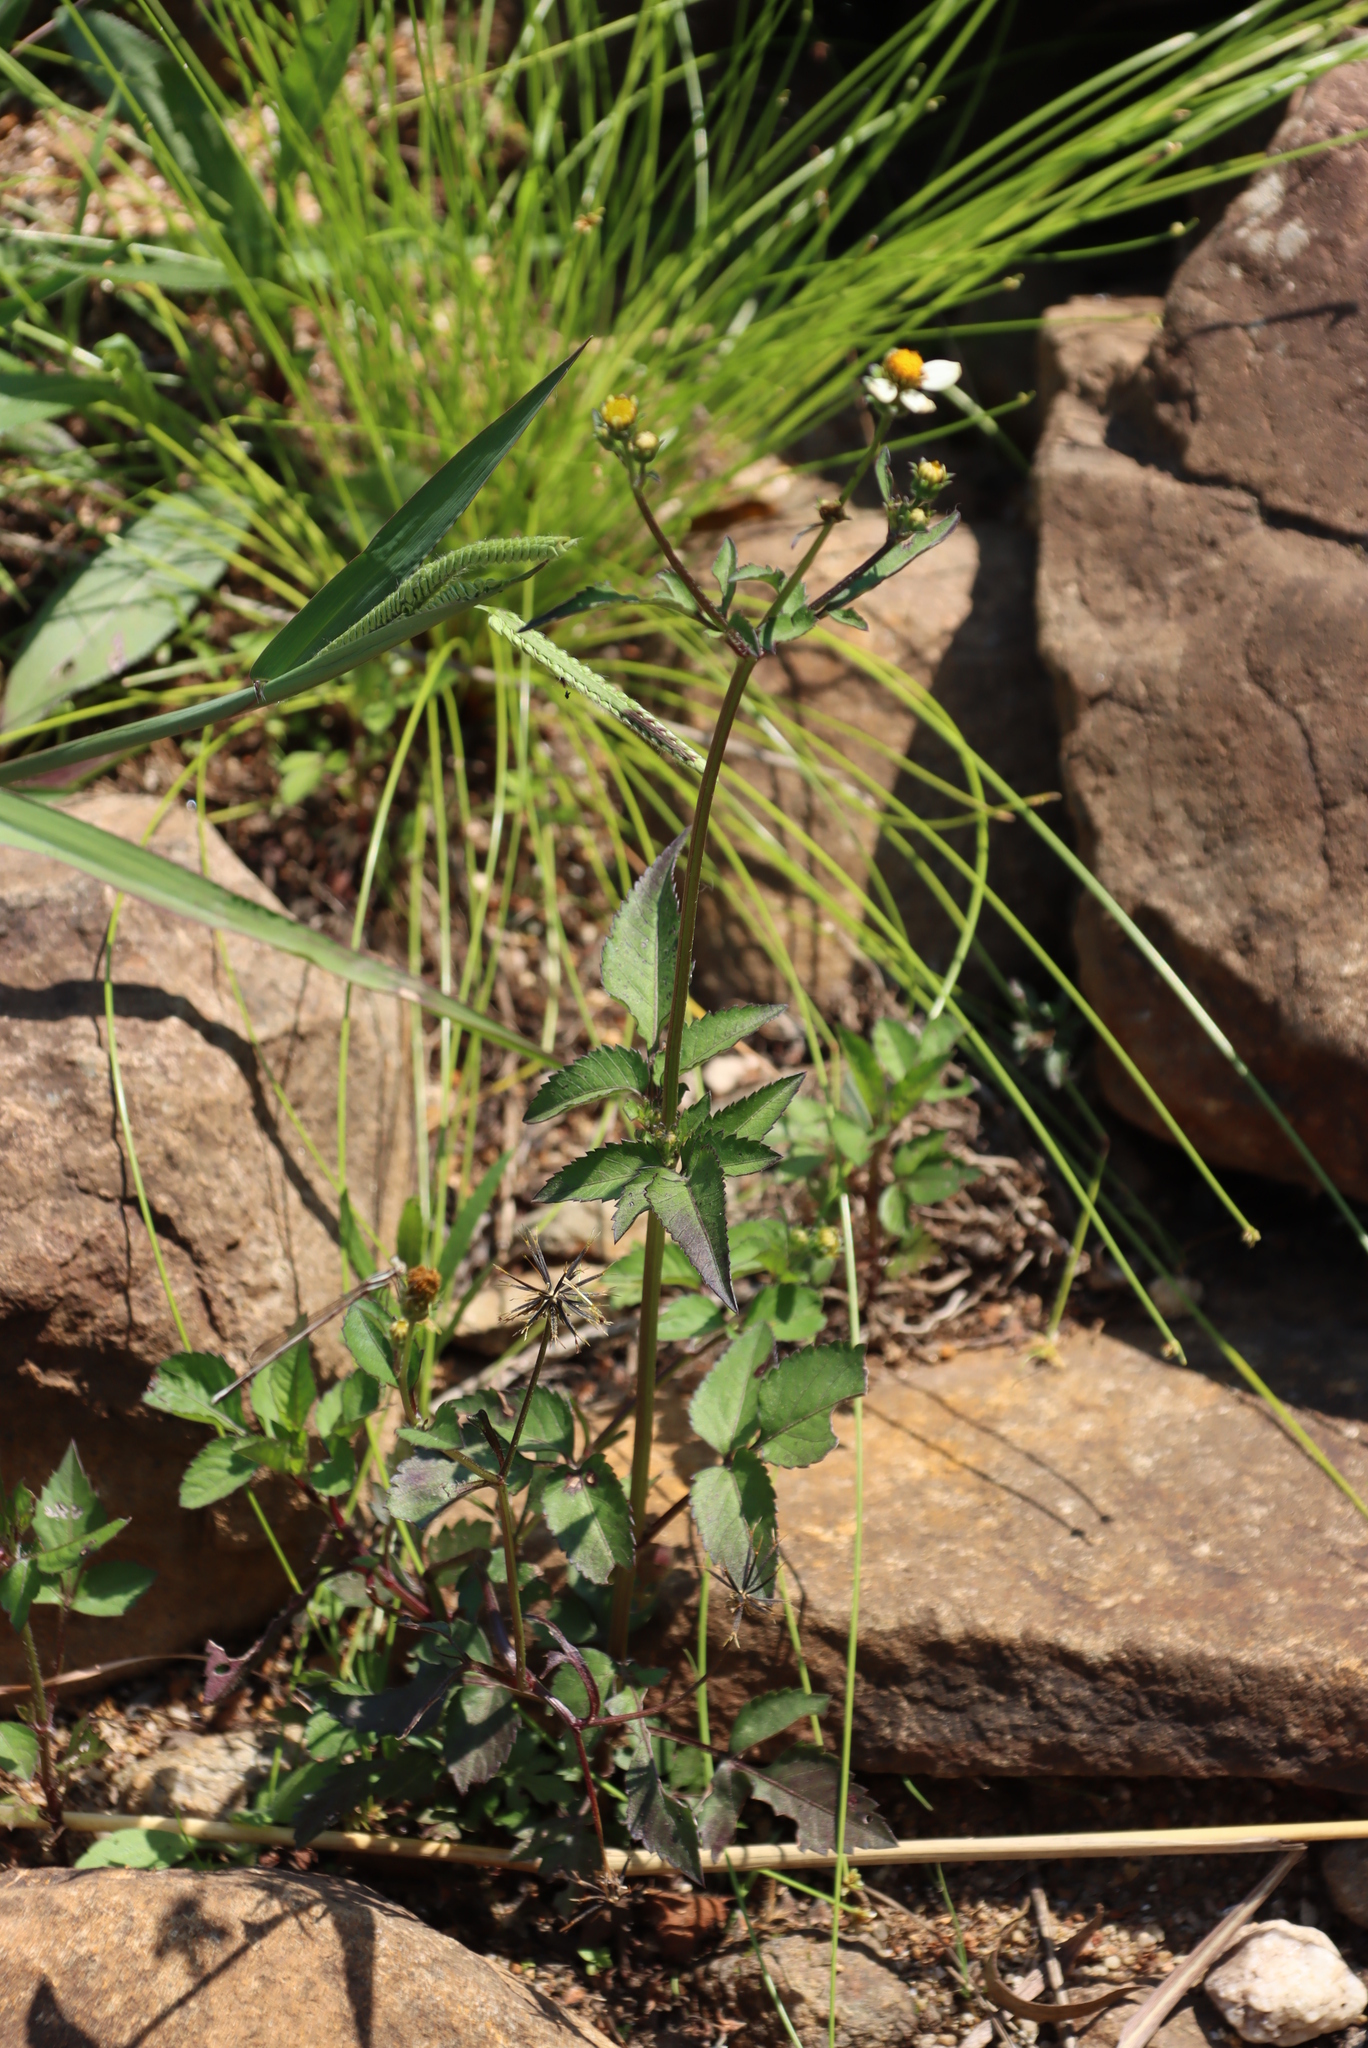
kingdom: Plantae
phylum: Tracheophyta
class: Magnoliopsida
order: Asterales
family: Asteraceae
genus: Bidens
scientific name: Bidens pilosa
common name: Black-jack
